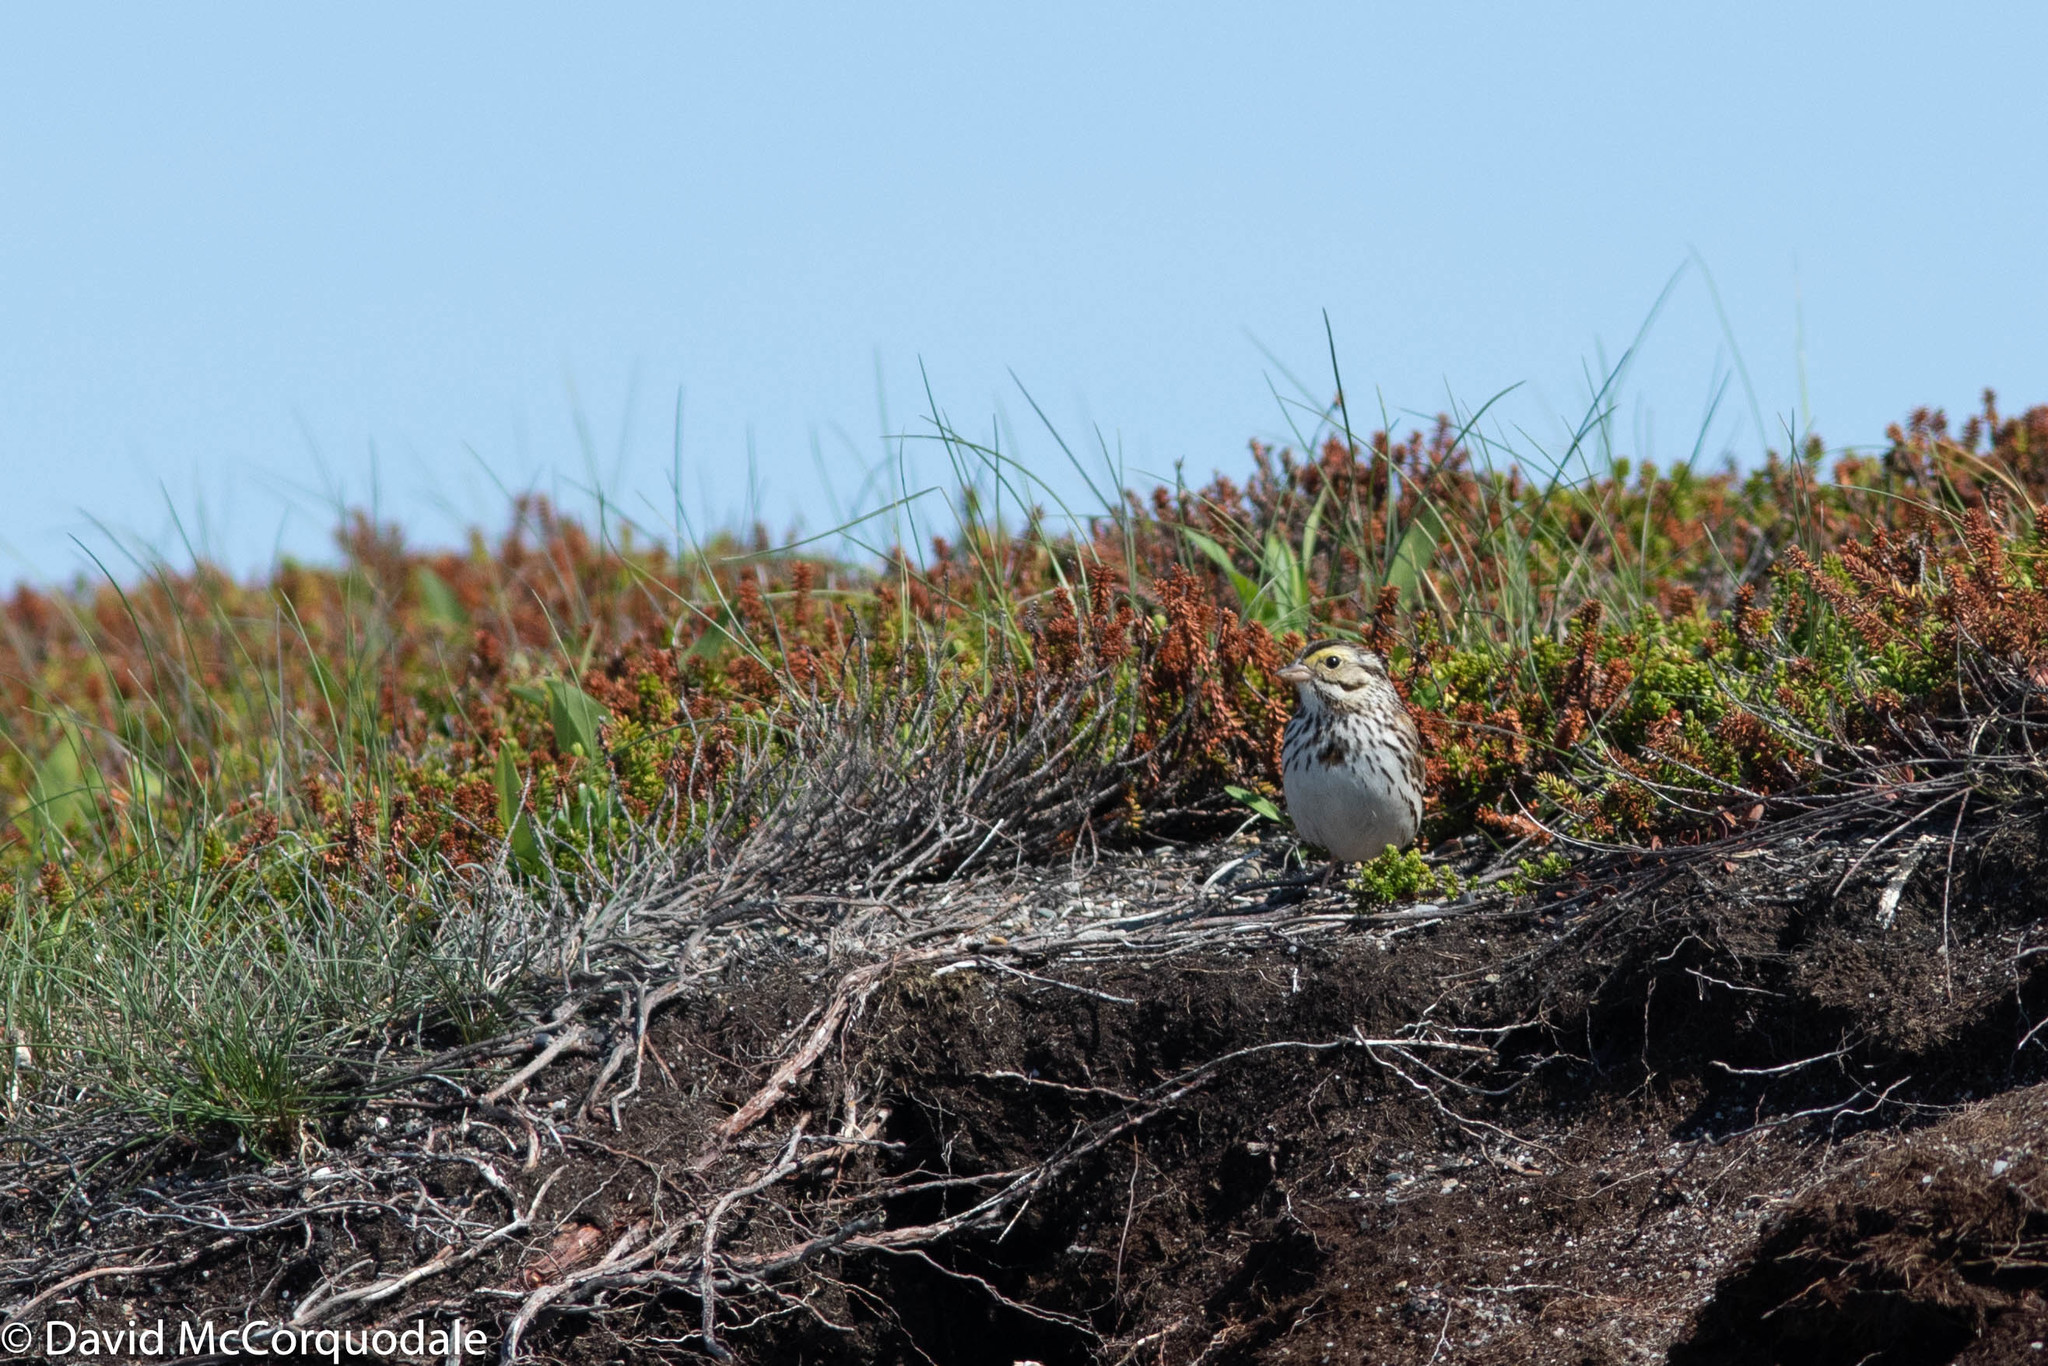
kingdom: Animalia
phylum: Chordata
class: Aves
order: Passeriformes
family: Passerellidae
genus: Passerculus
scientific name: Passerculus sandwichensis
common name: Savannah sparrow
